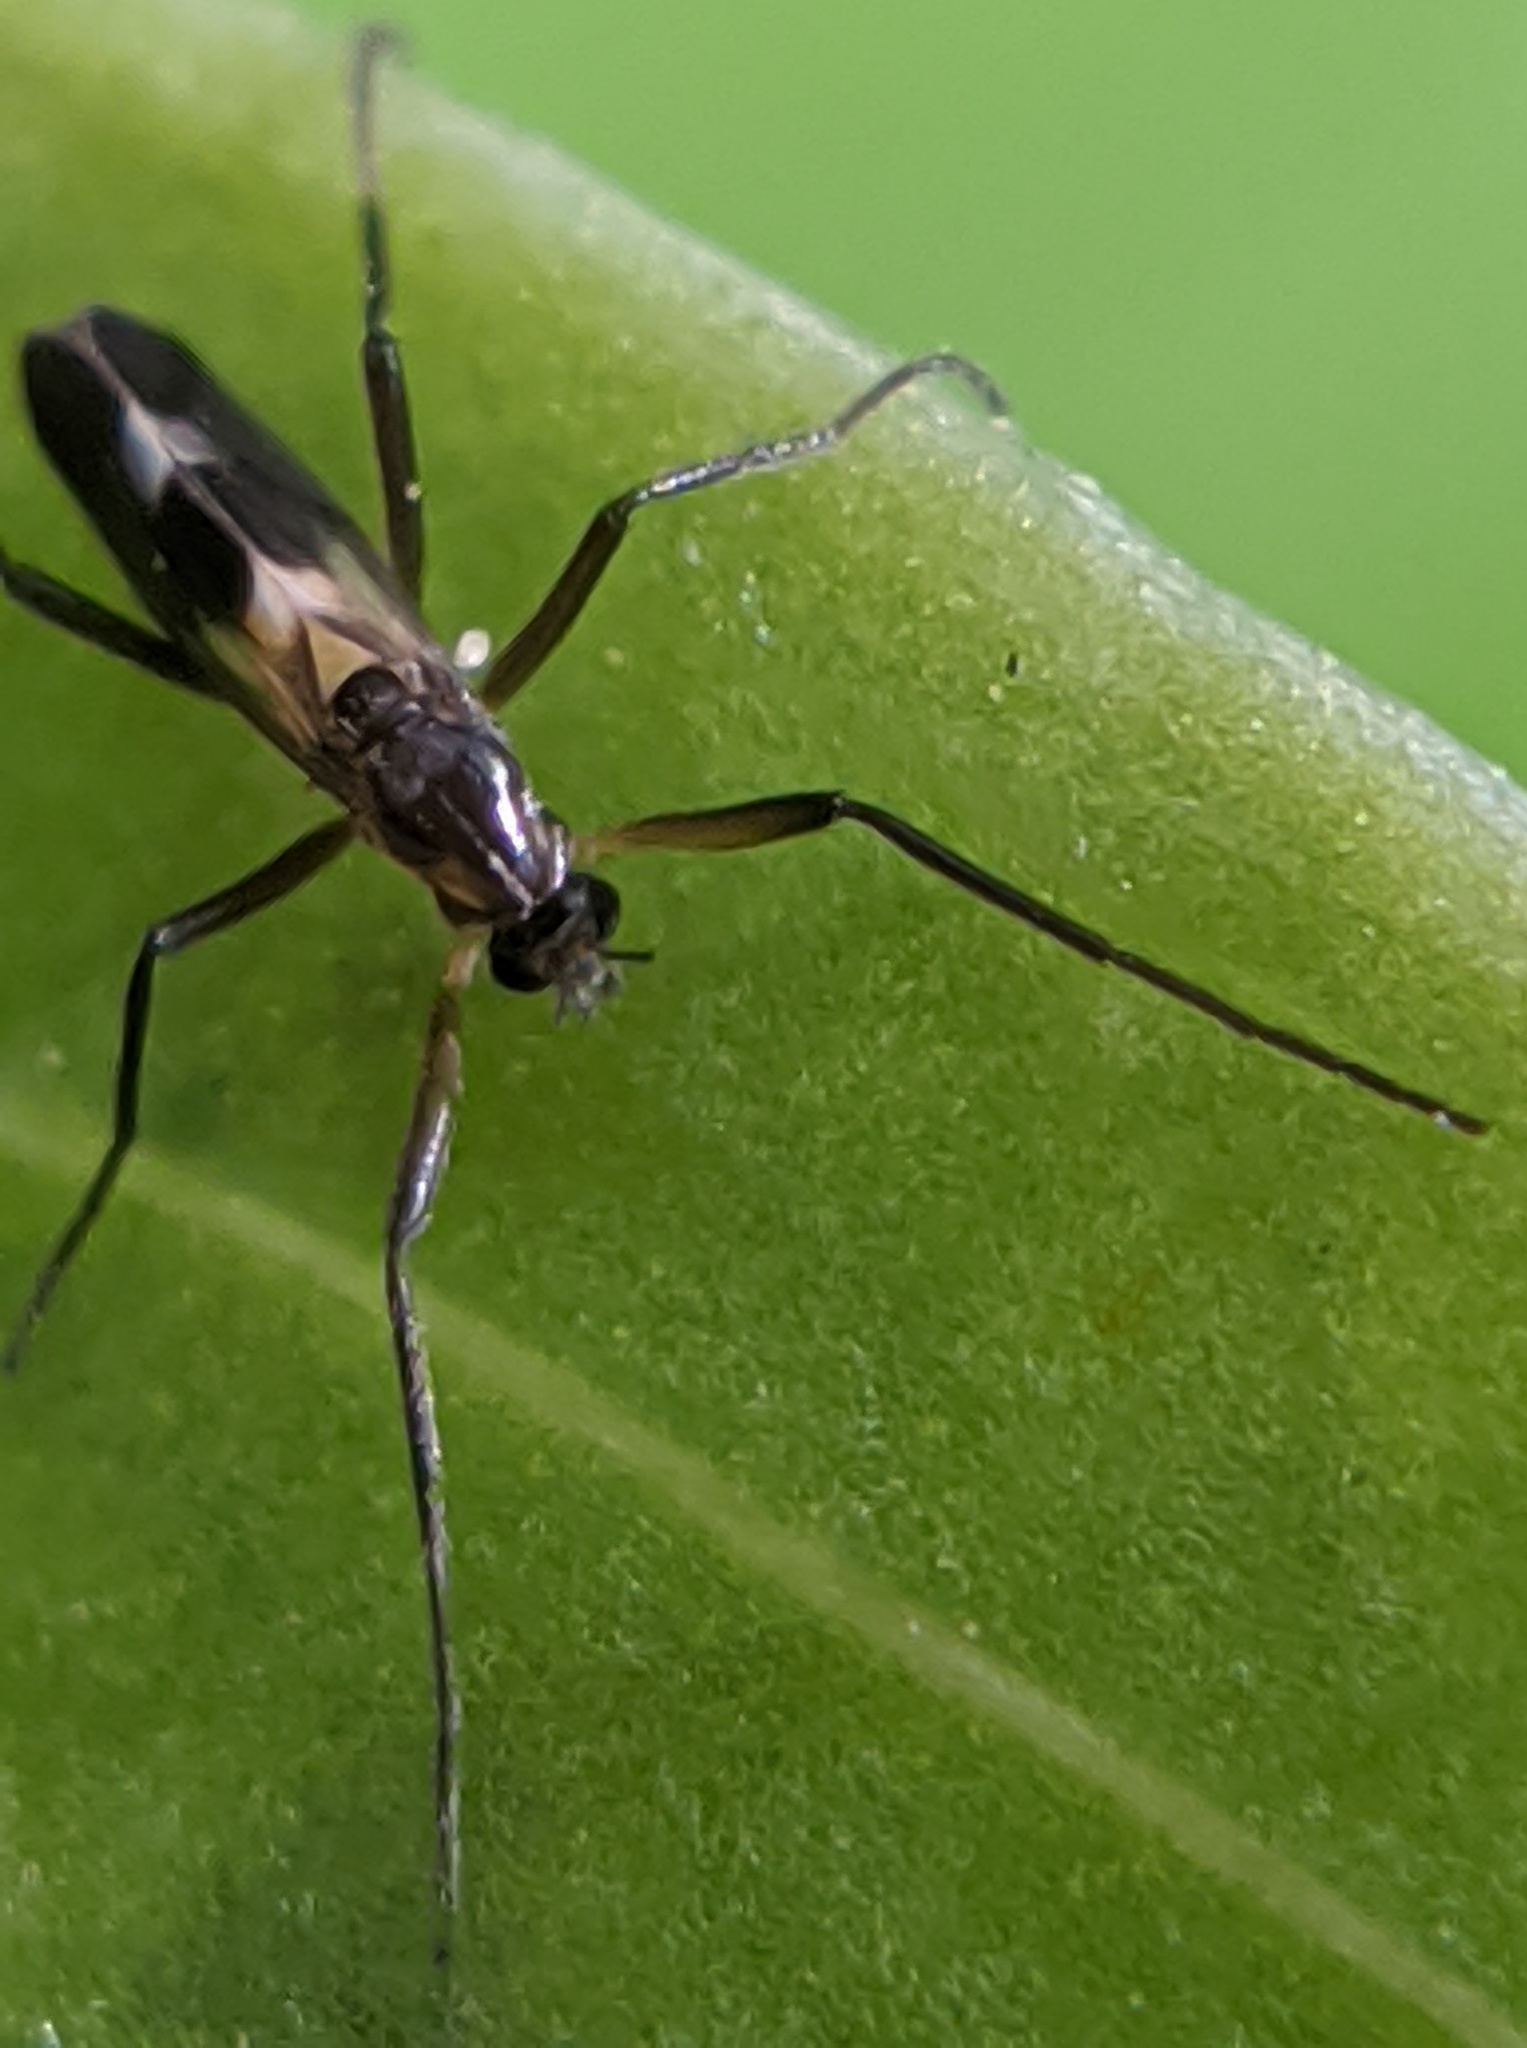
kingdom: Animalia
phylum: Arthropoda
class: Insecta
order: Diptera
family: Chironomidae
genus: Chasmatonotus
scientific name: Chasmatonotus atripes
